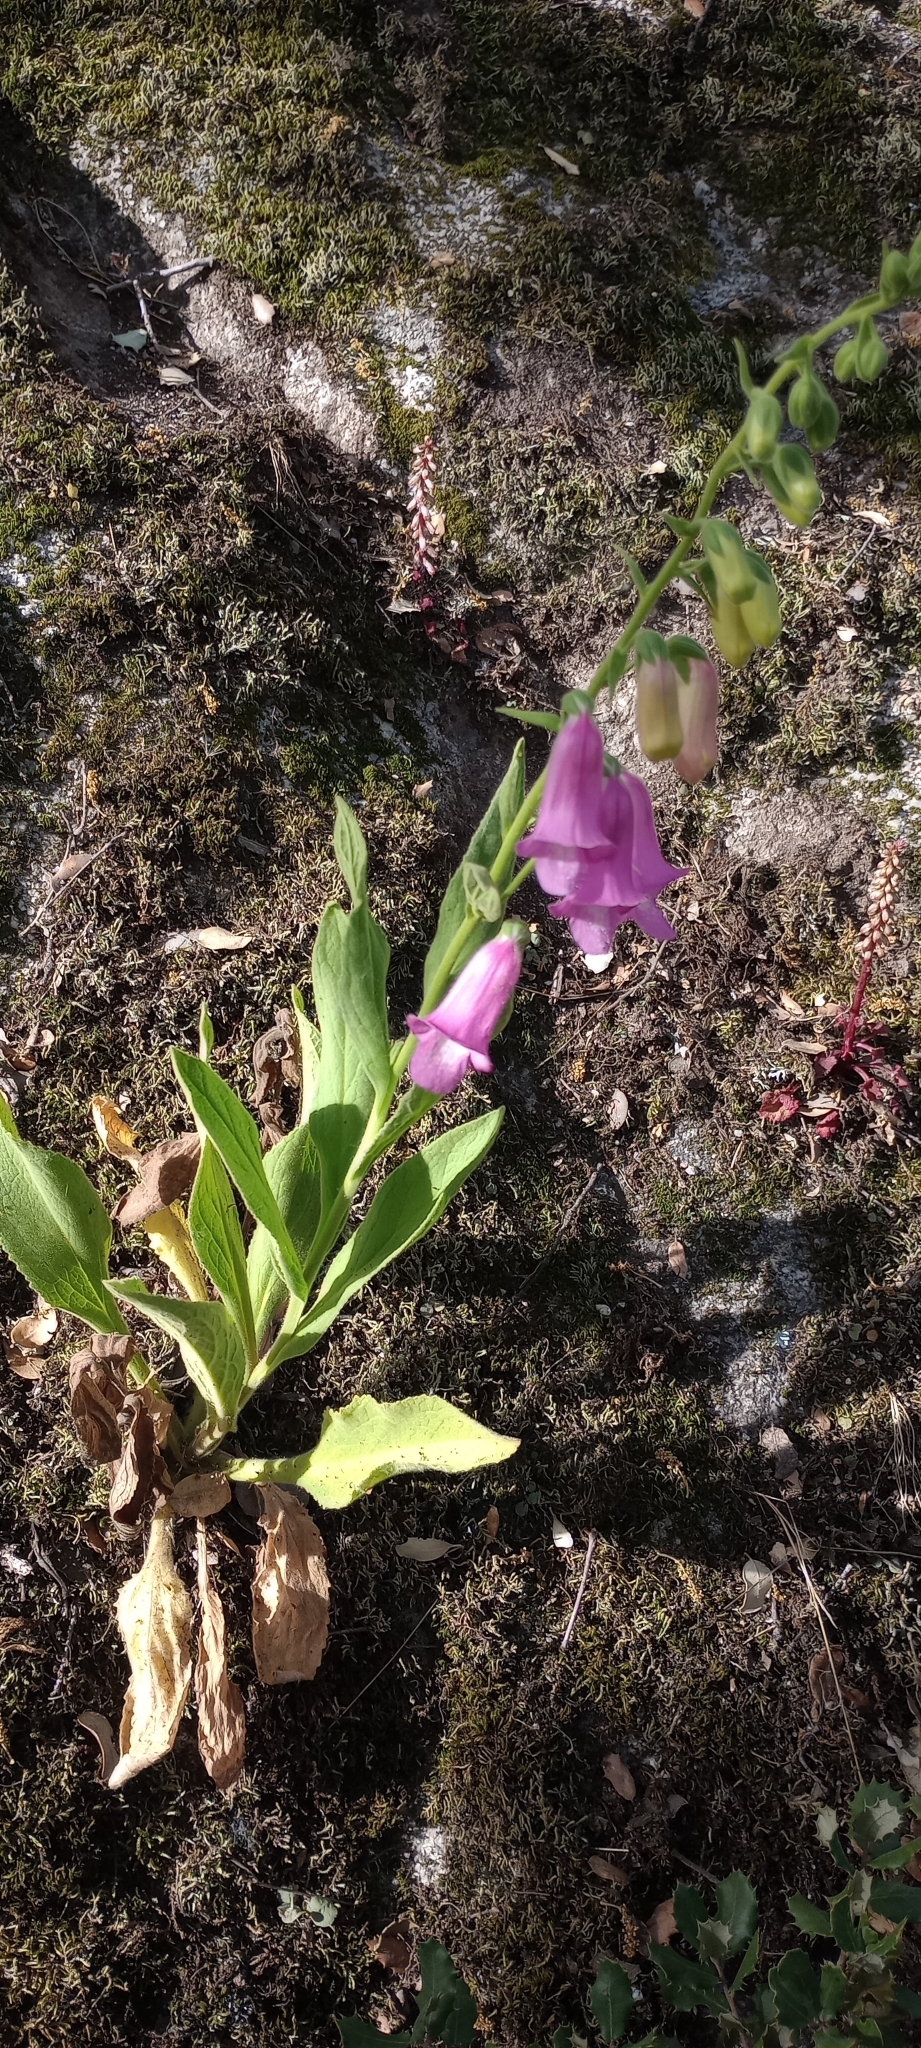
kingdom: Plantae
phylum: Tracheophyta
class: Magnoliopsida
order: Lamiales
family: Plantaginaceae
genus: Digitalis
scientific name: Digitalis thapsi
